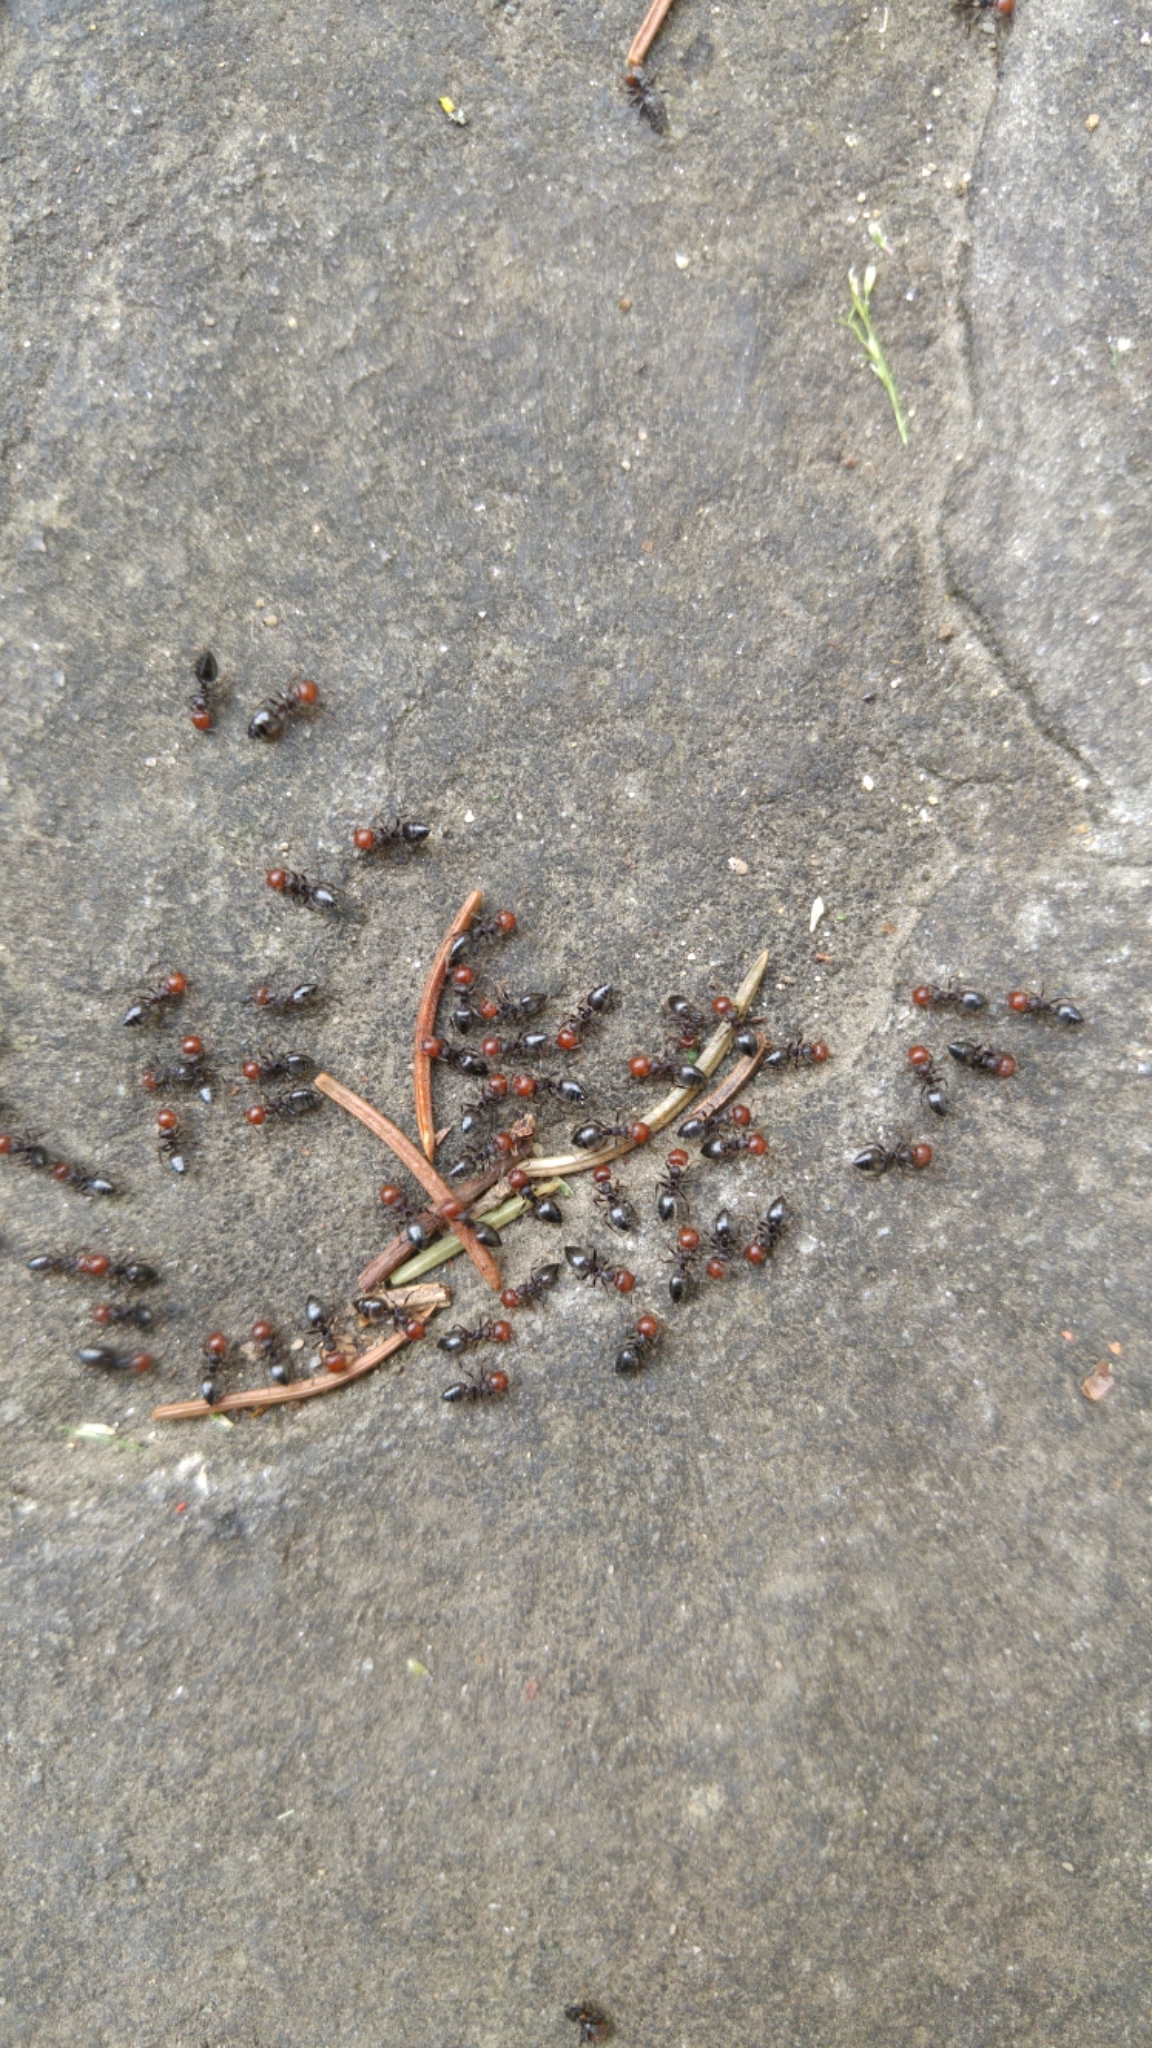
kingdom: Animalia
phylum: Arthropoda
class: Insecta
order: Hymenoptera
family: Formicidae
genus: Crematogaster
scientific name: Crematogaster scutellaris
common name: Fourmi du liège
